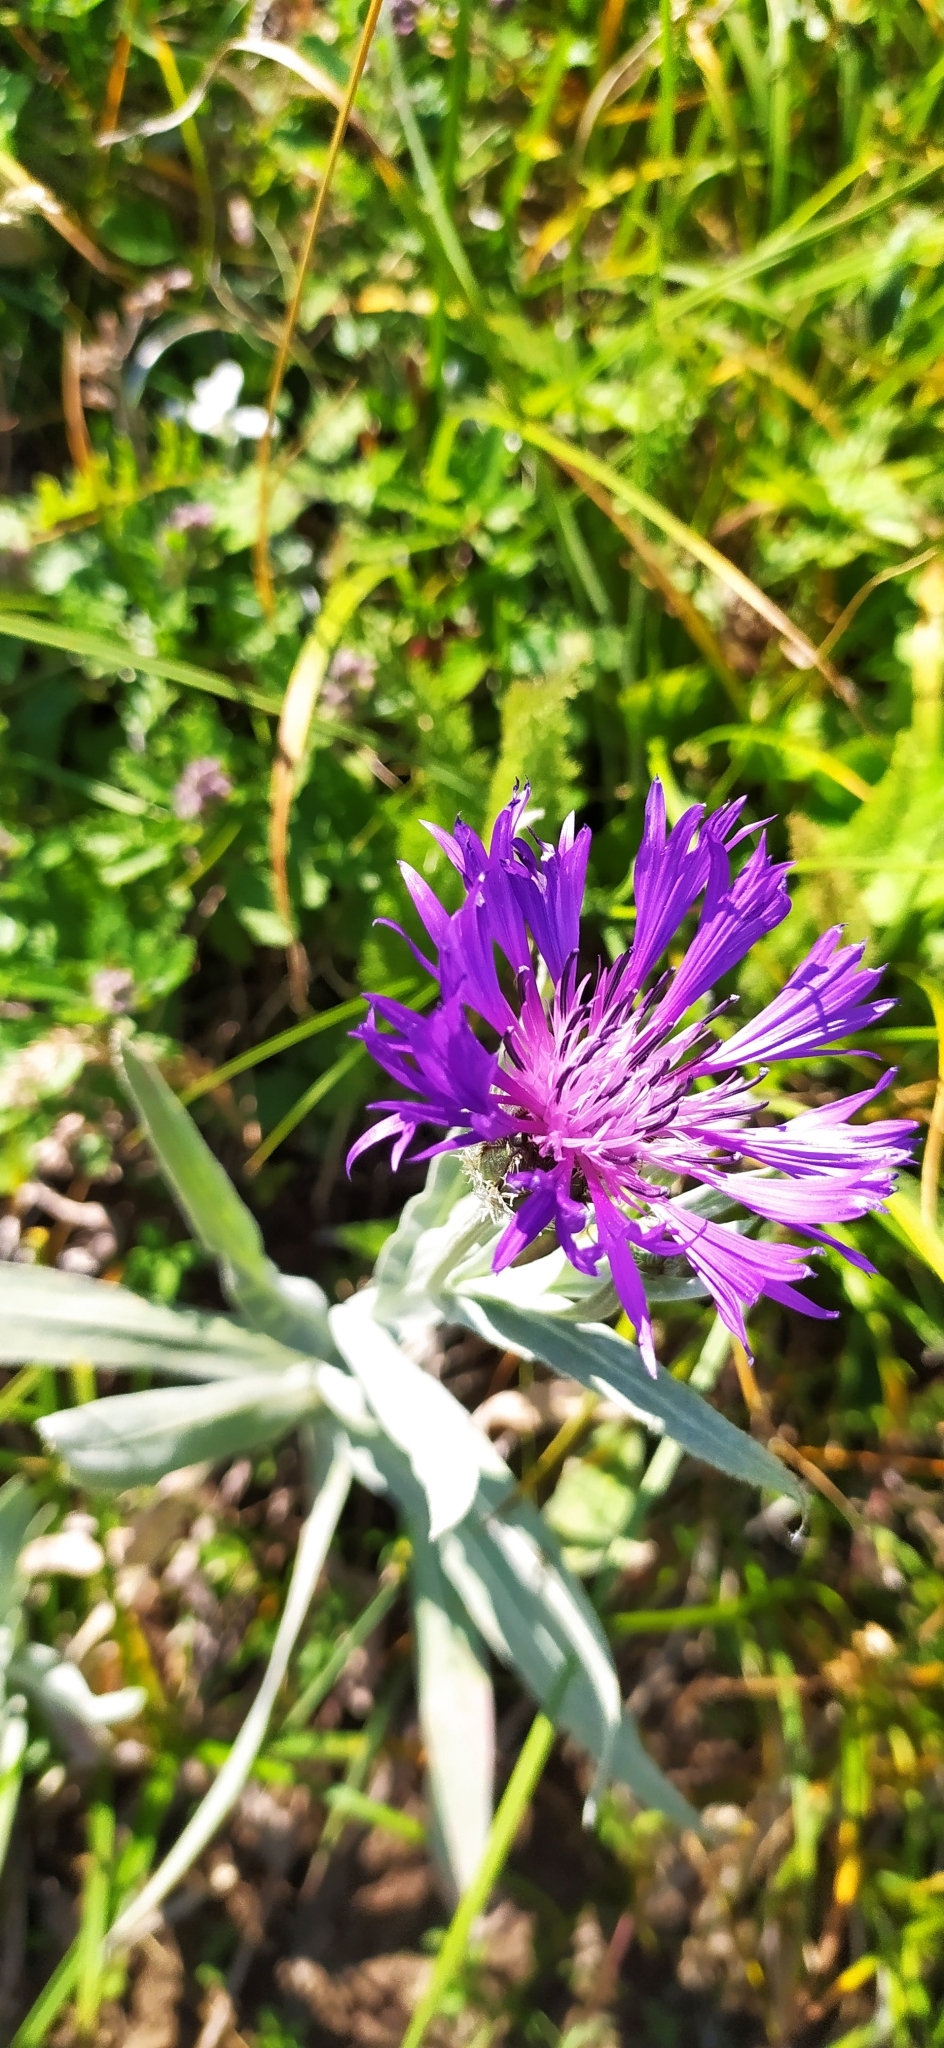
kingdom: Plantae
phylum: Tracheophyta
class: Magnoliopsida
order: Asterales
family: Asteraceae
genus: Centaurea
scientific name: Centaurea fuscomarginata
